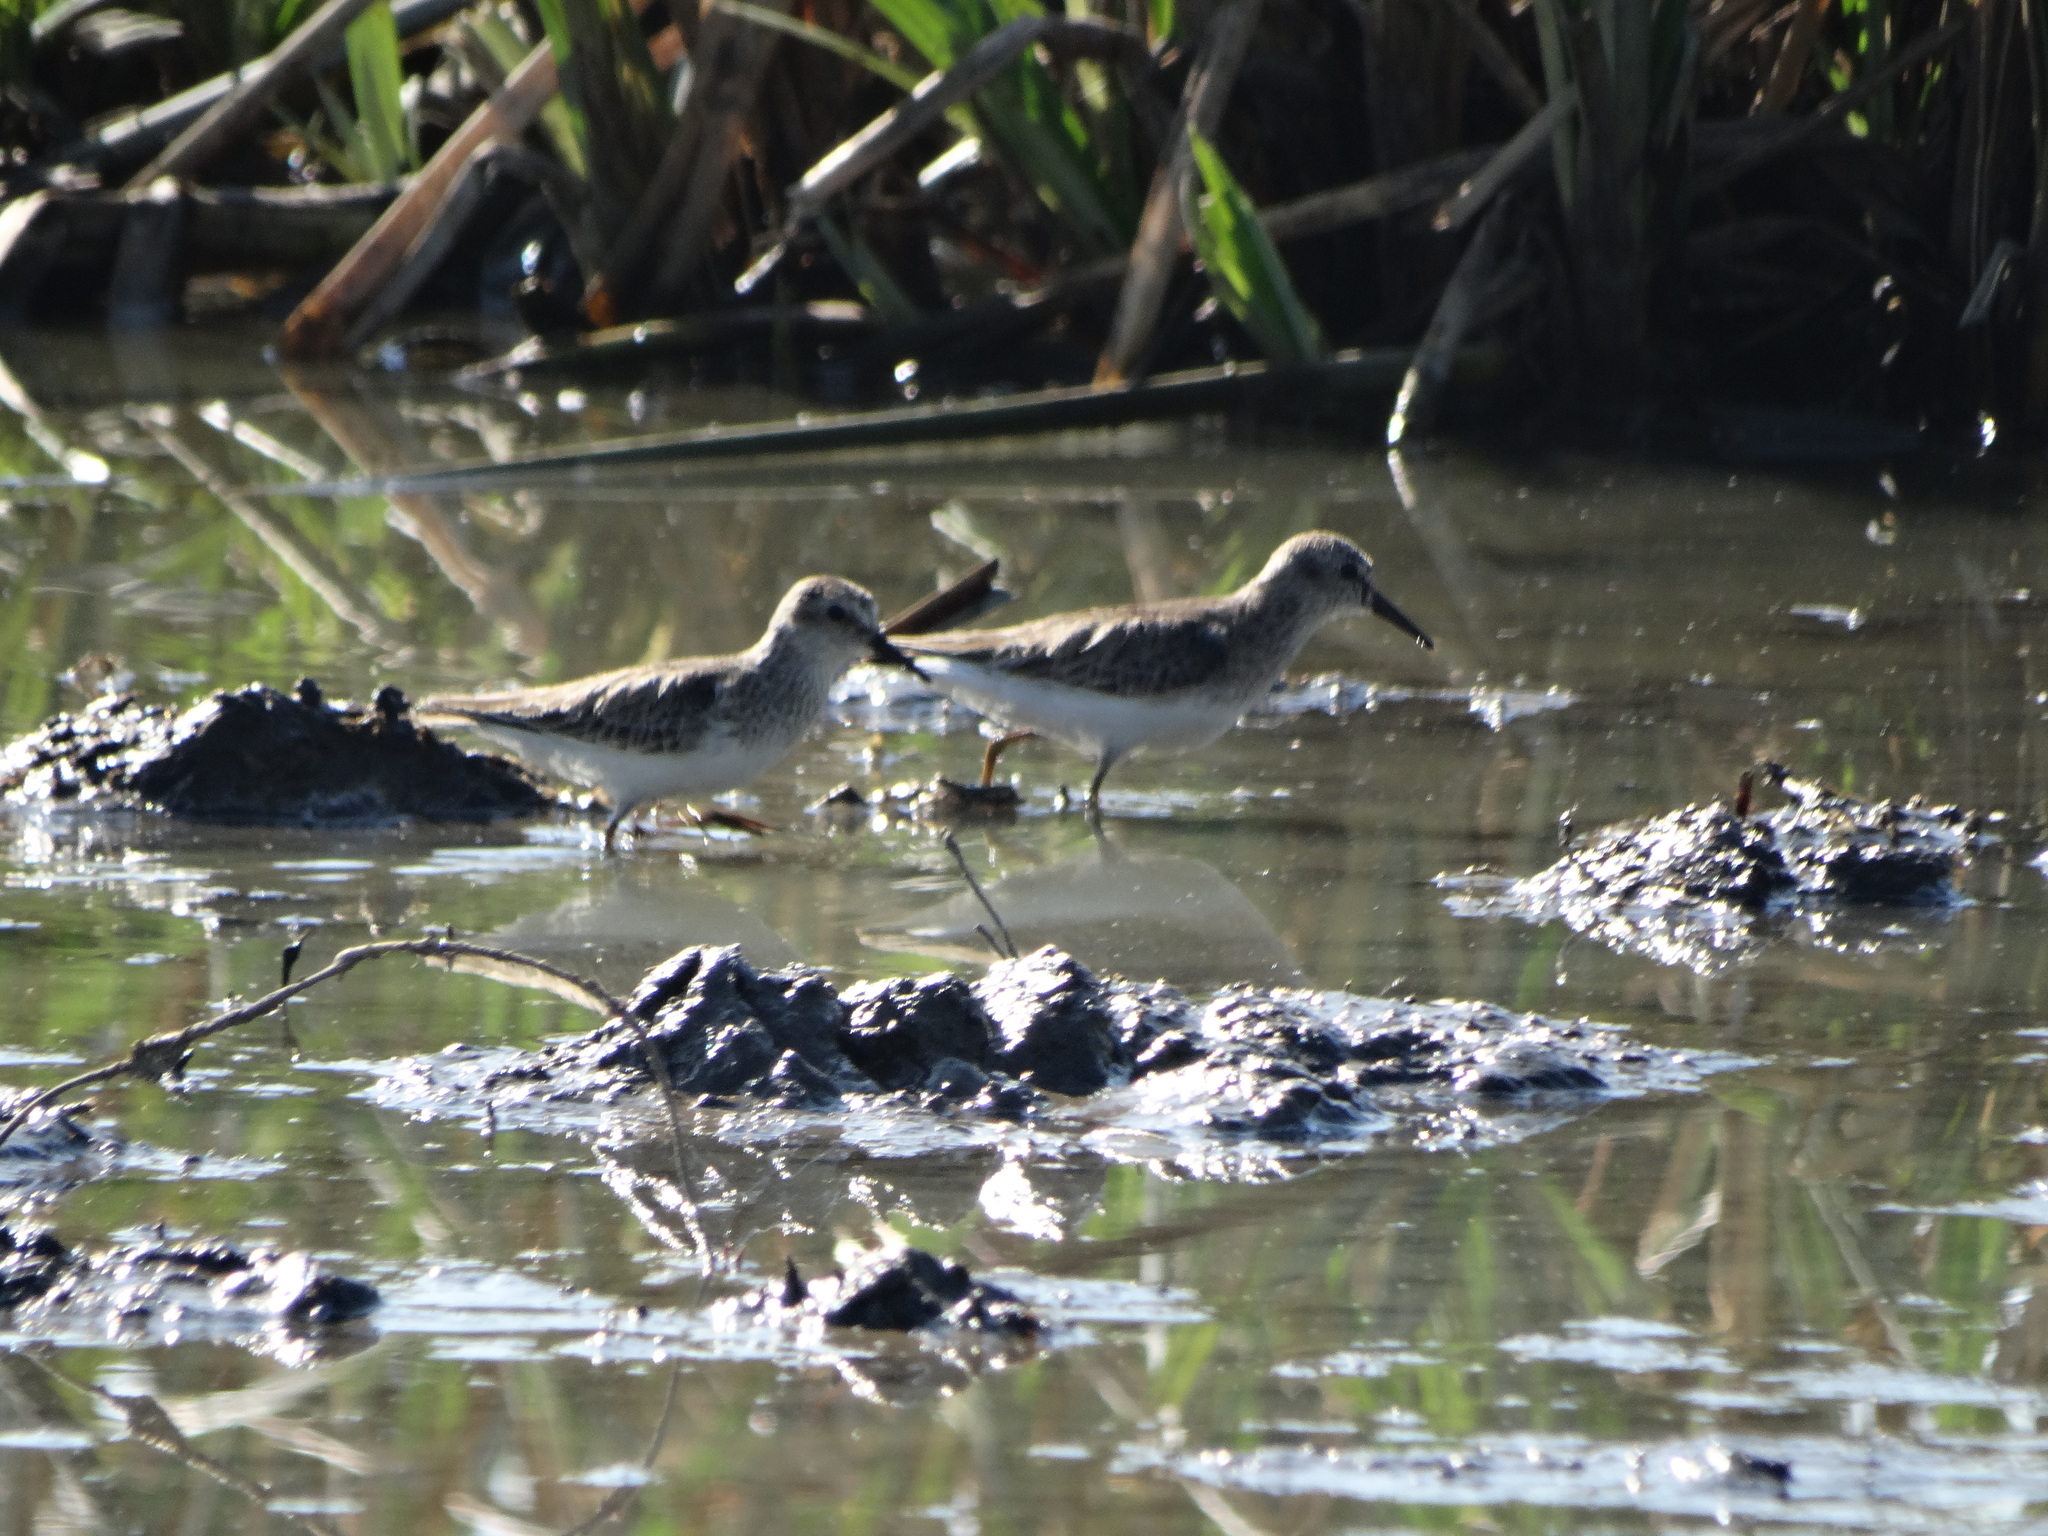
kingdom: Animalia
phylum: Chordata
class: Aves
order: Charadriiformes
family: Scolopacidae
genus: Calidris
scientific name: Calidris minutilla
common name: Least sandpiper
